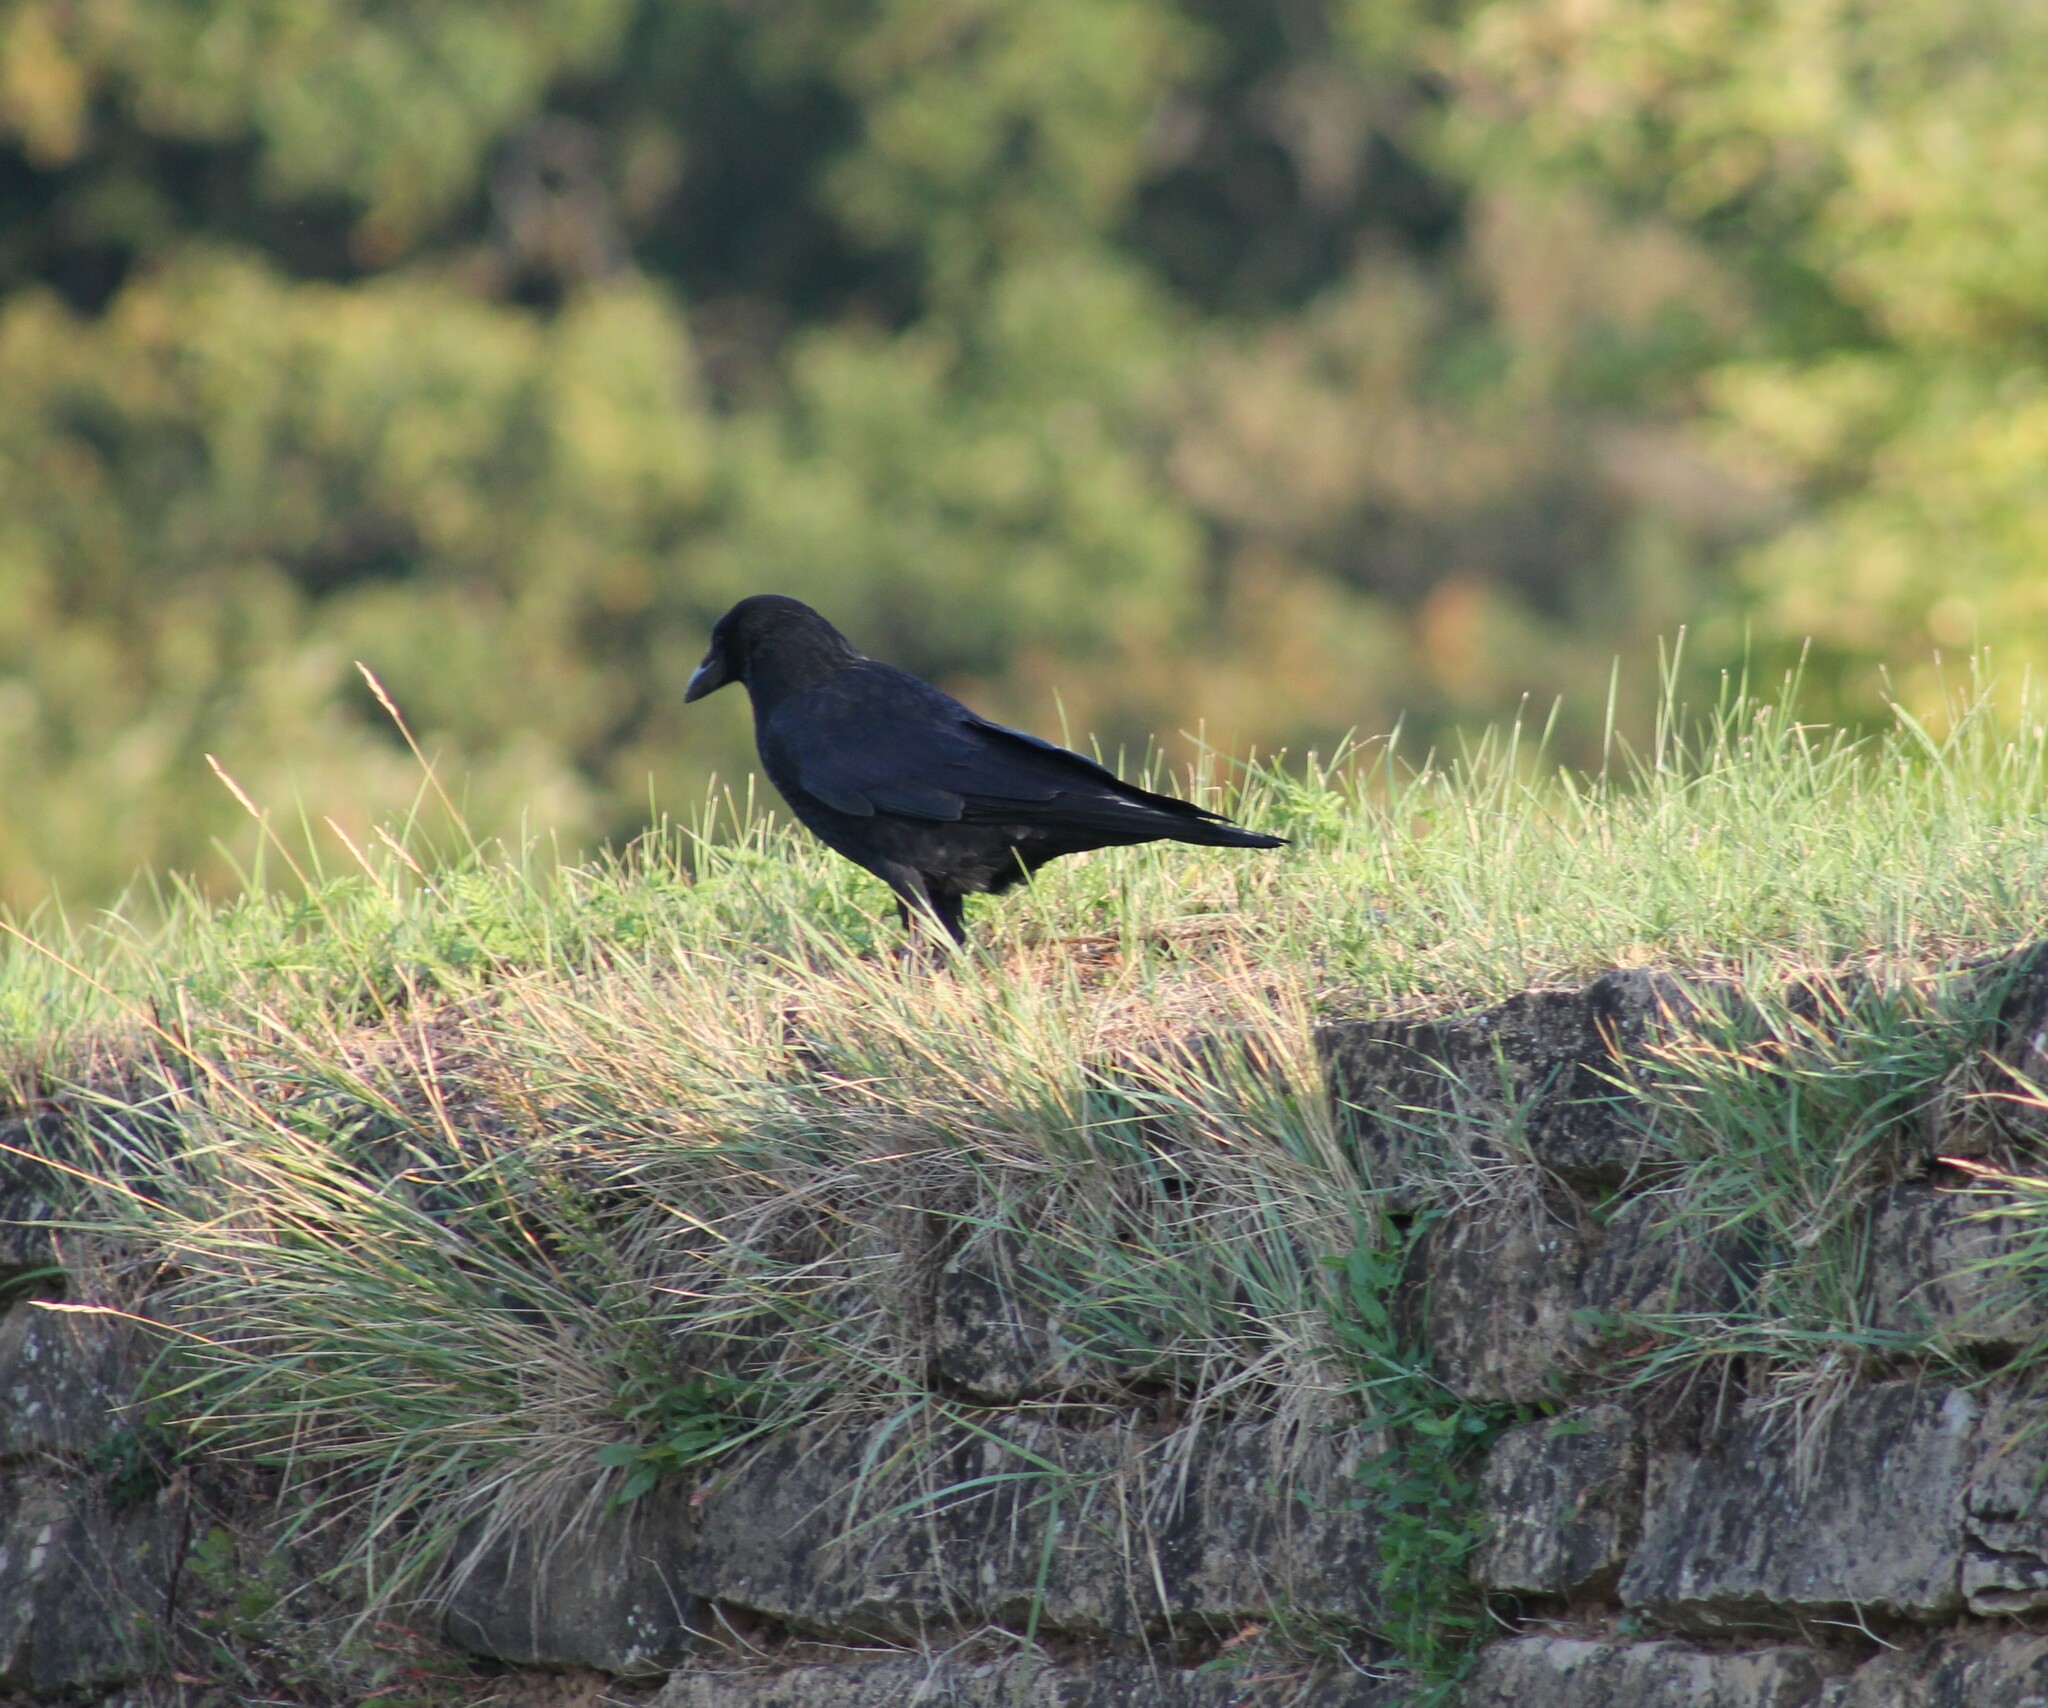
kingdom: Animalia
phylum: Chordata
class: Aves
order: Passeriformes
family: Corvidae
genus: Corvus
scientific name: Corvus corone
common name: Carrion crow
